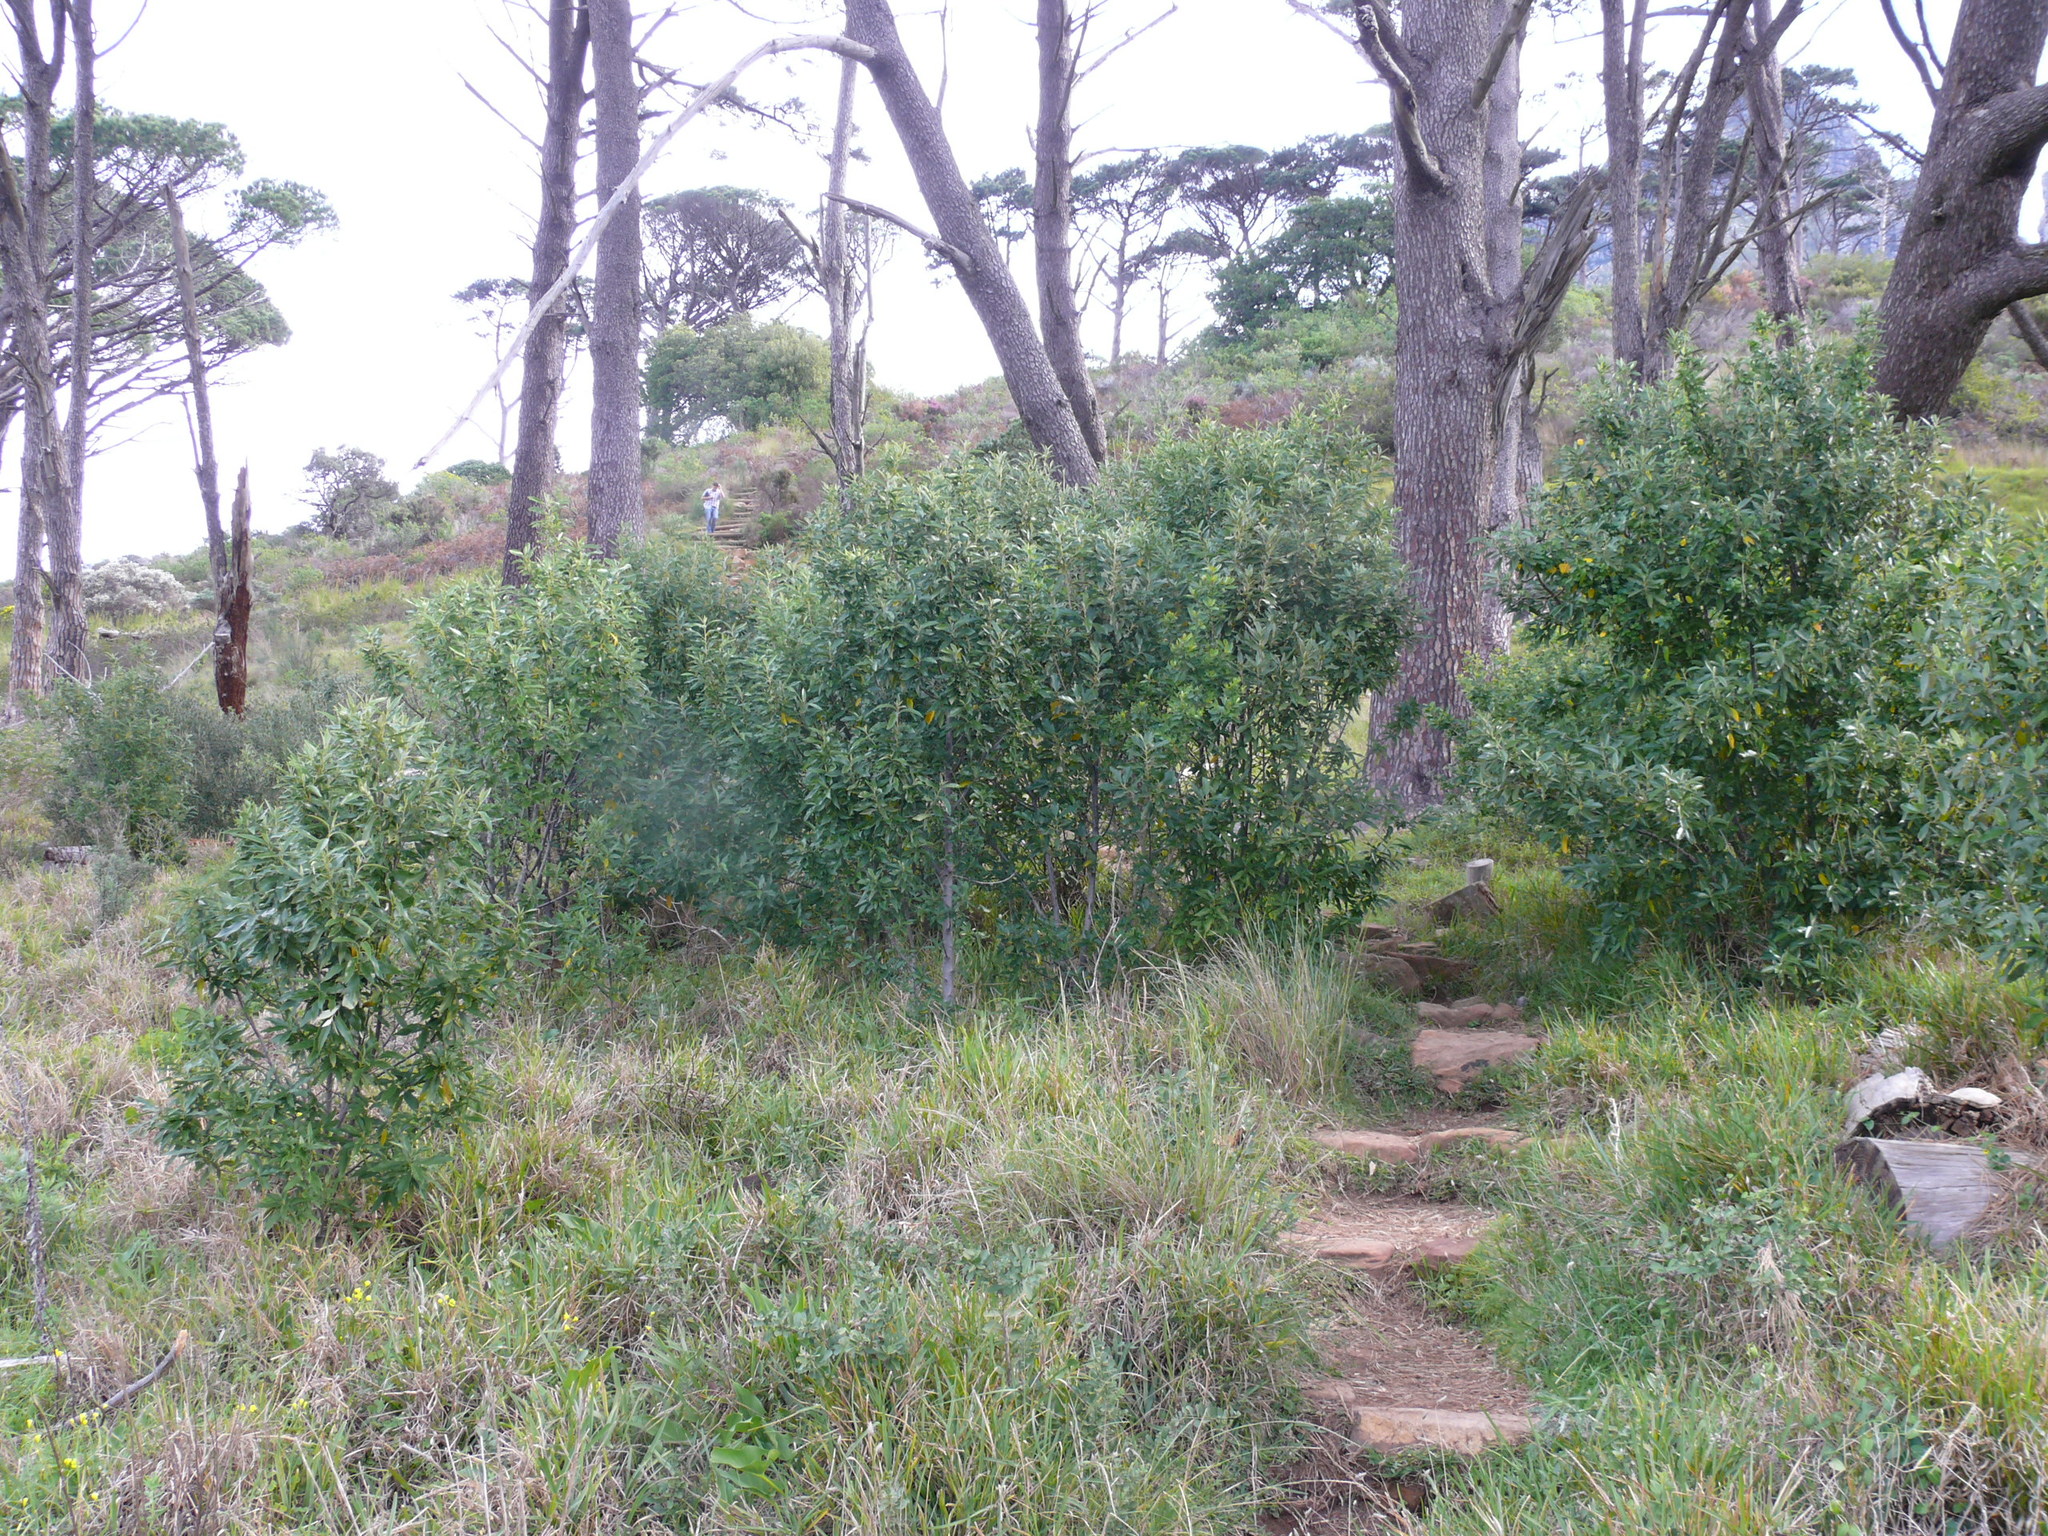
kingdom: Plantae
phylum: Tracheophyta
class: Magnoliopsida
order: Malpighiales
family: Achariaceae
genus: Kiggelaria
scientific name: Kiggelaria africana
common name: Wild peach
